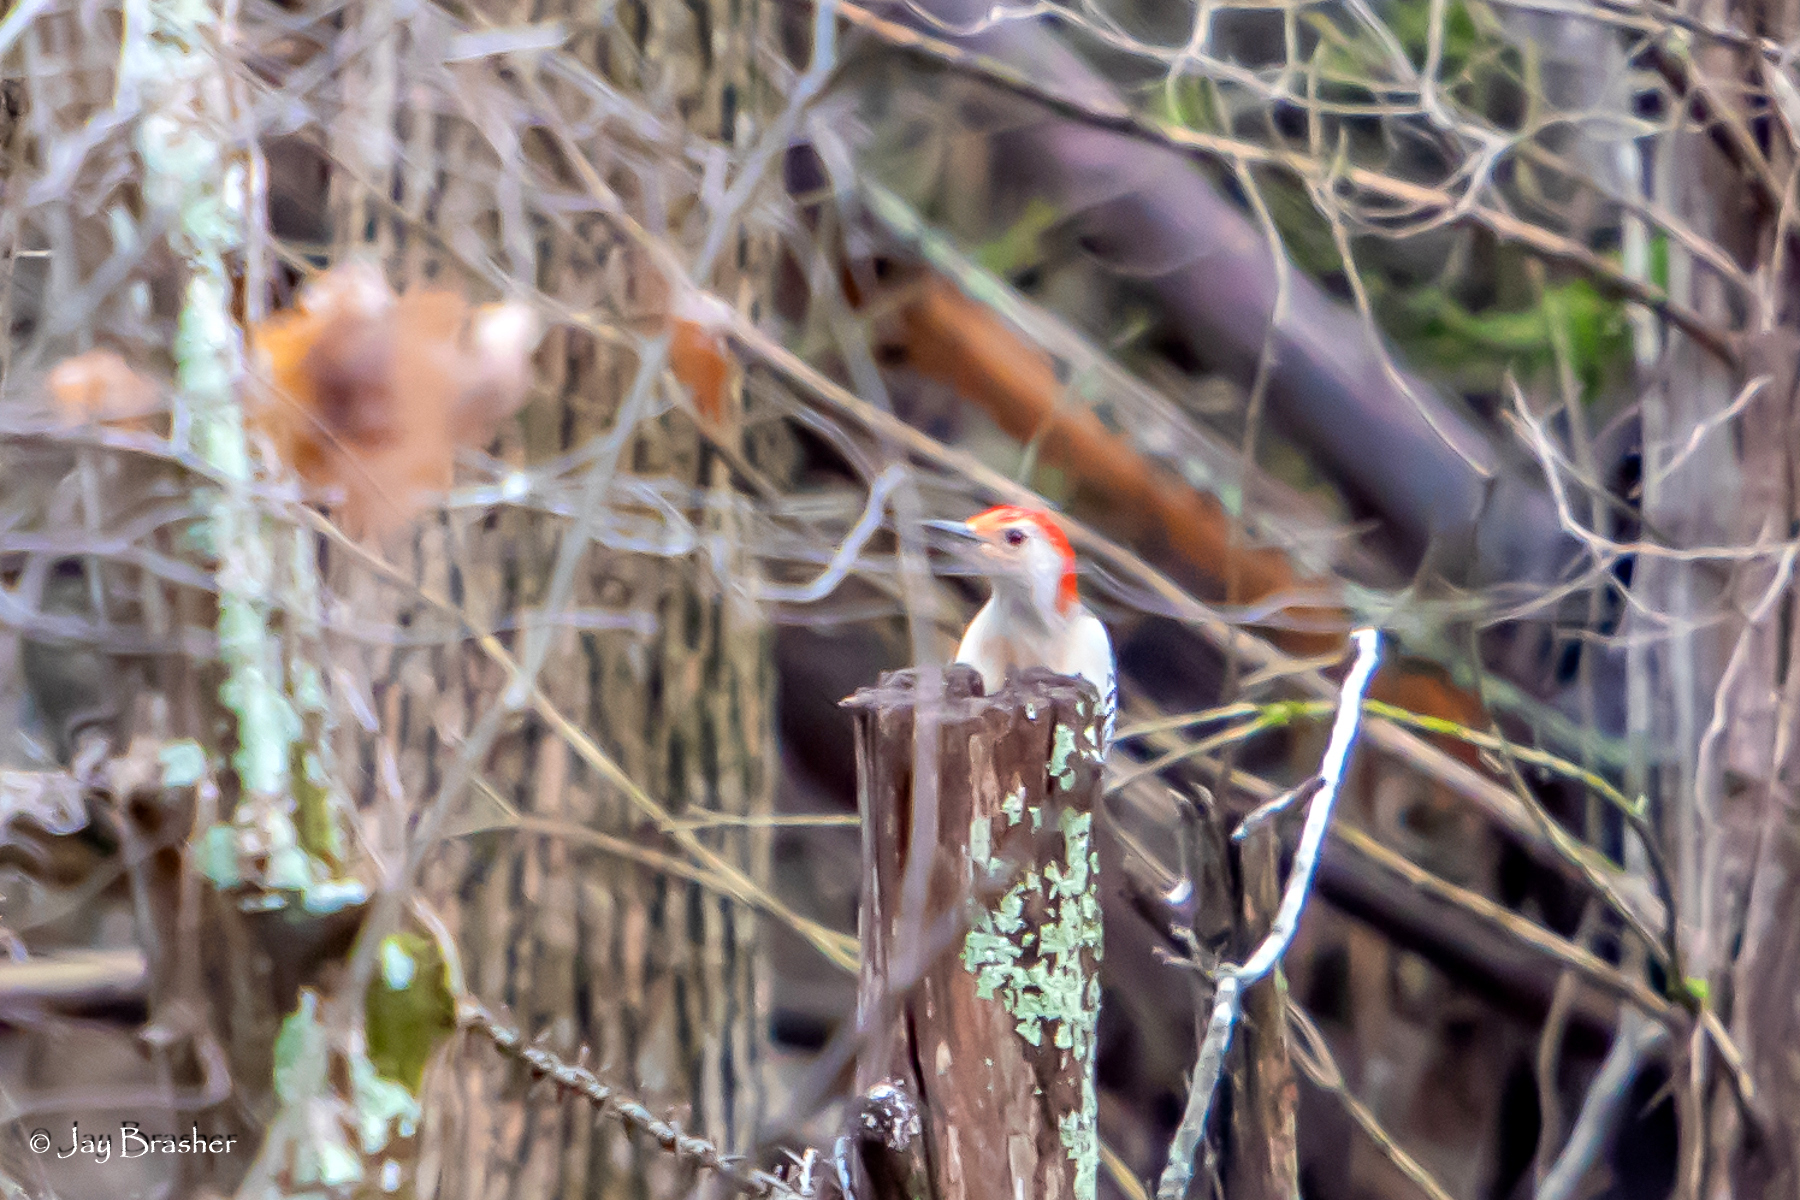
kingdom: Animalia
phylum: Chordata
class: Aves
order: Piciformes
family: Picidae
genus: Melanerpes
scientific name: Melanerpes carolinus
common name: Red-bellied woodpecker
